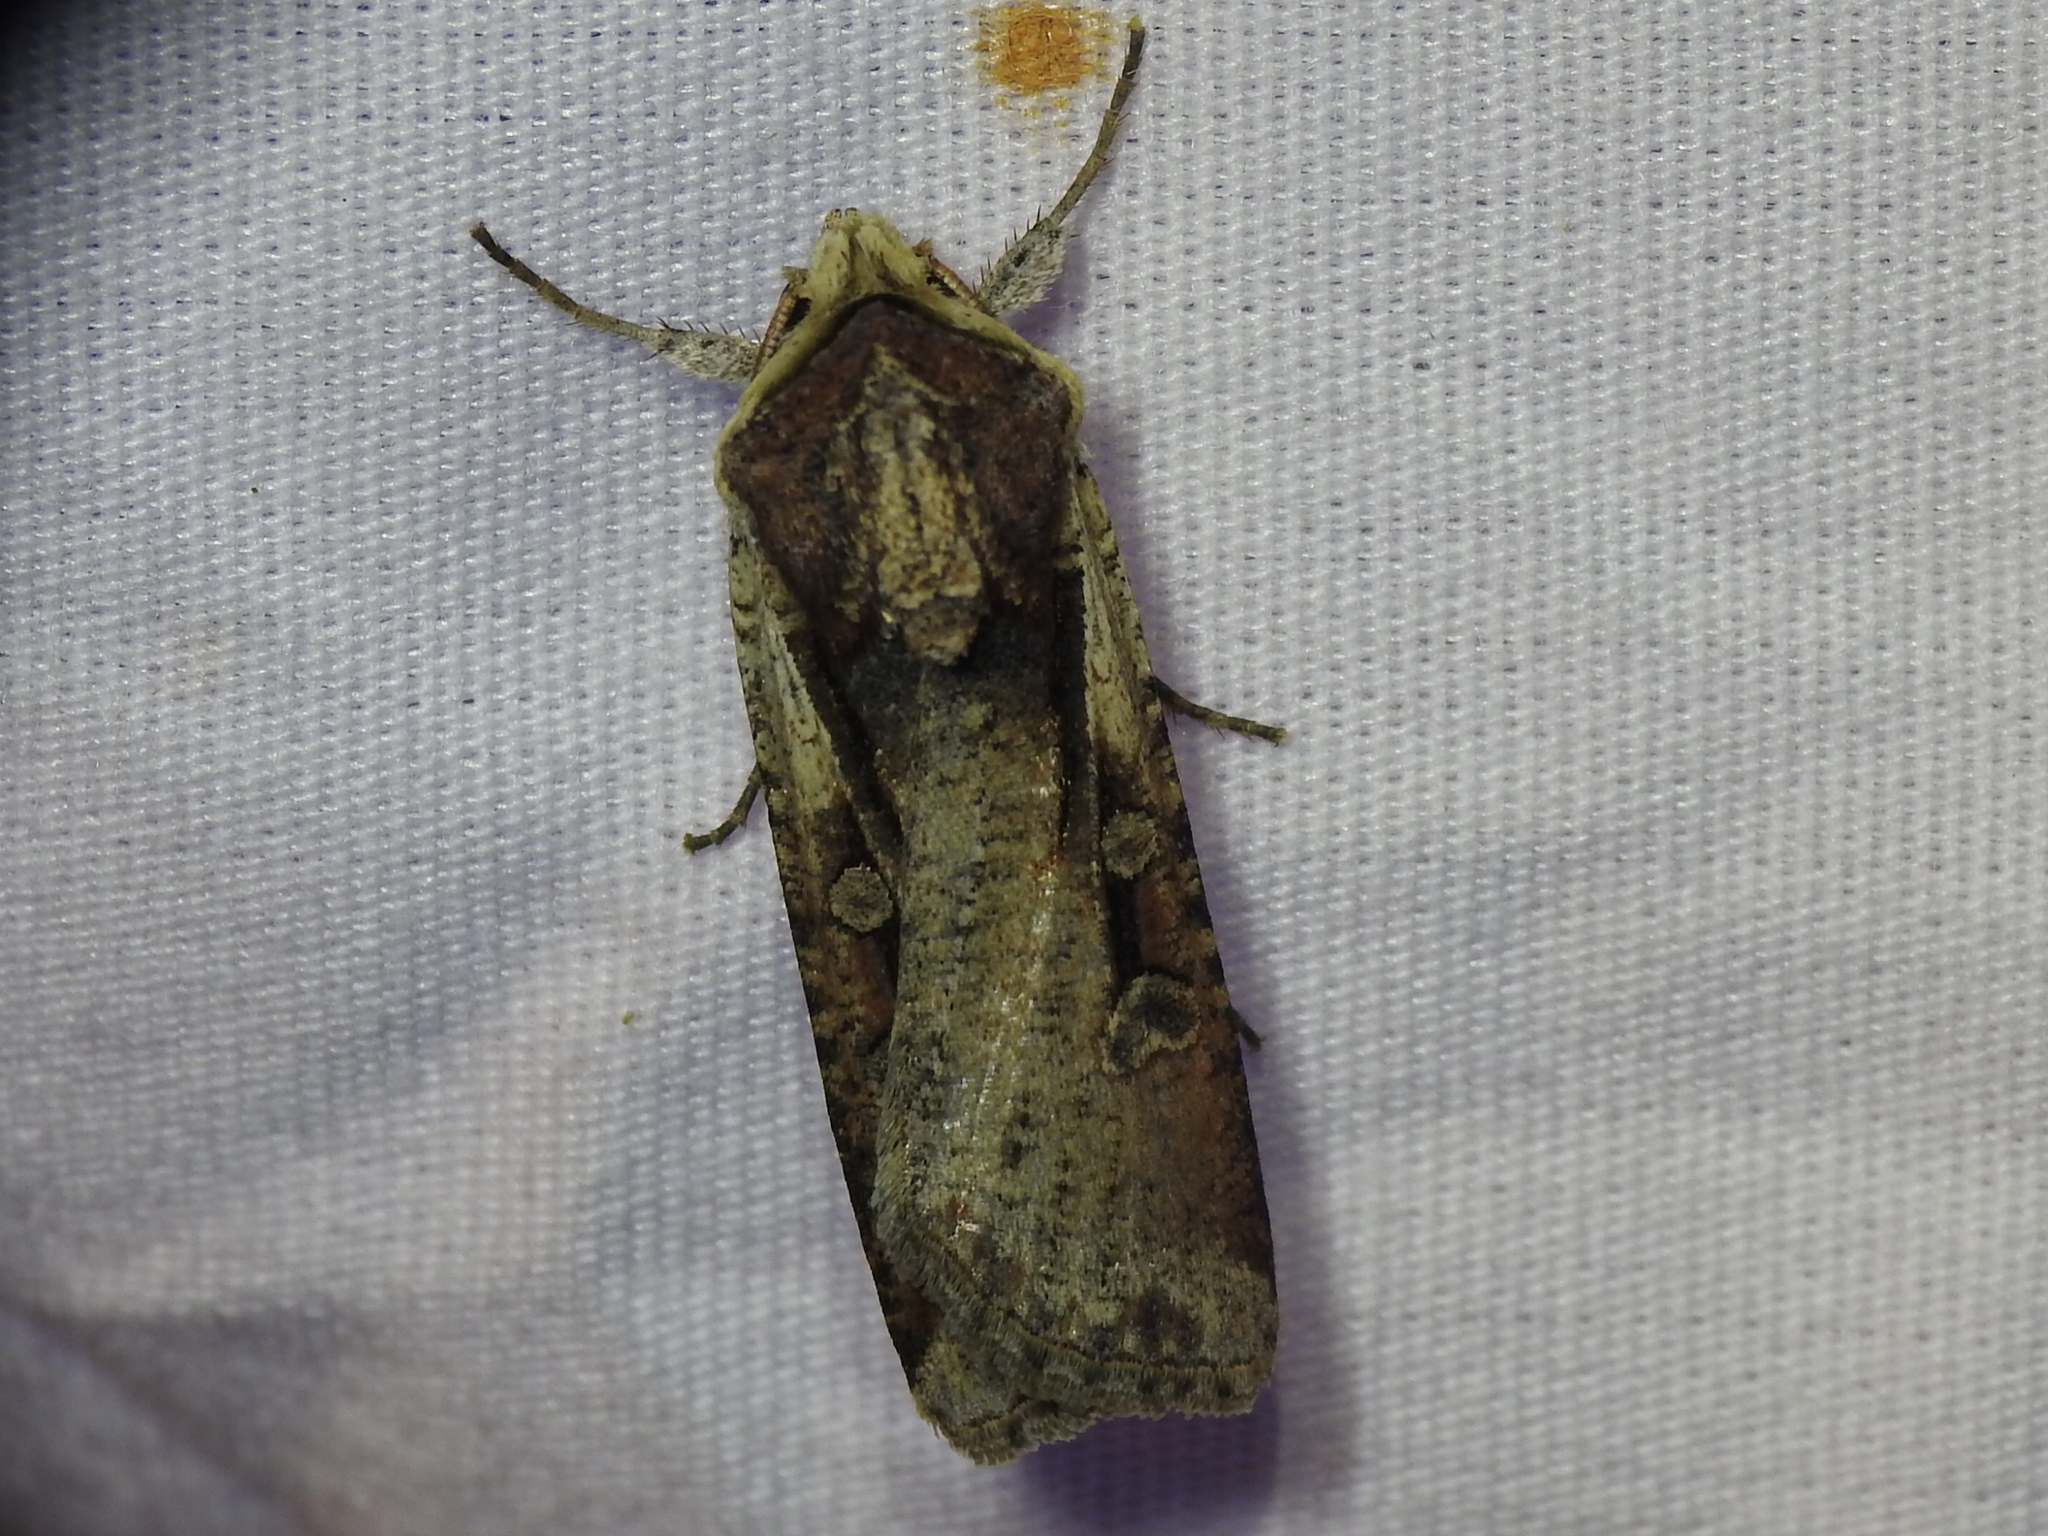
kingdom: Animalia
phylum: Arthropoda
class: Insecta
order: Lepidoptera
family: Noctuidae
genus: Hemieuxoa
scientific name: Hemieuxoa rudens
